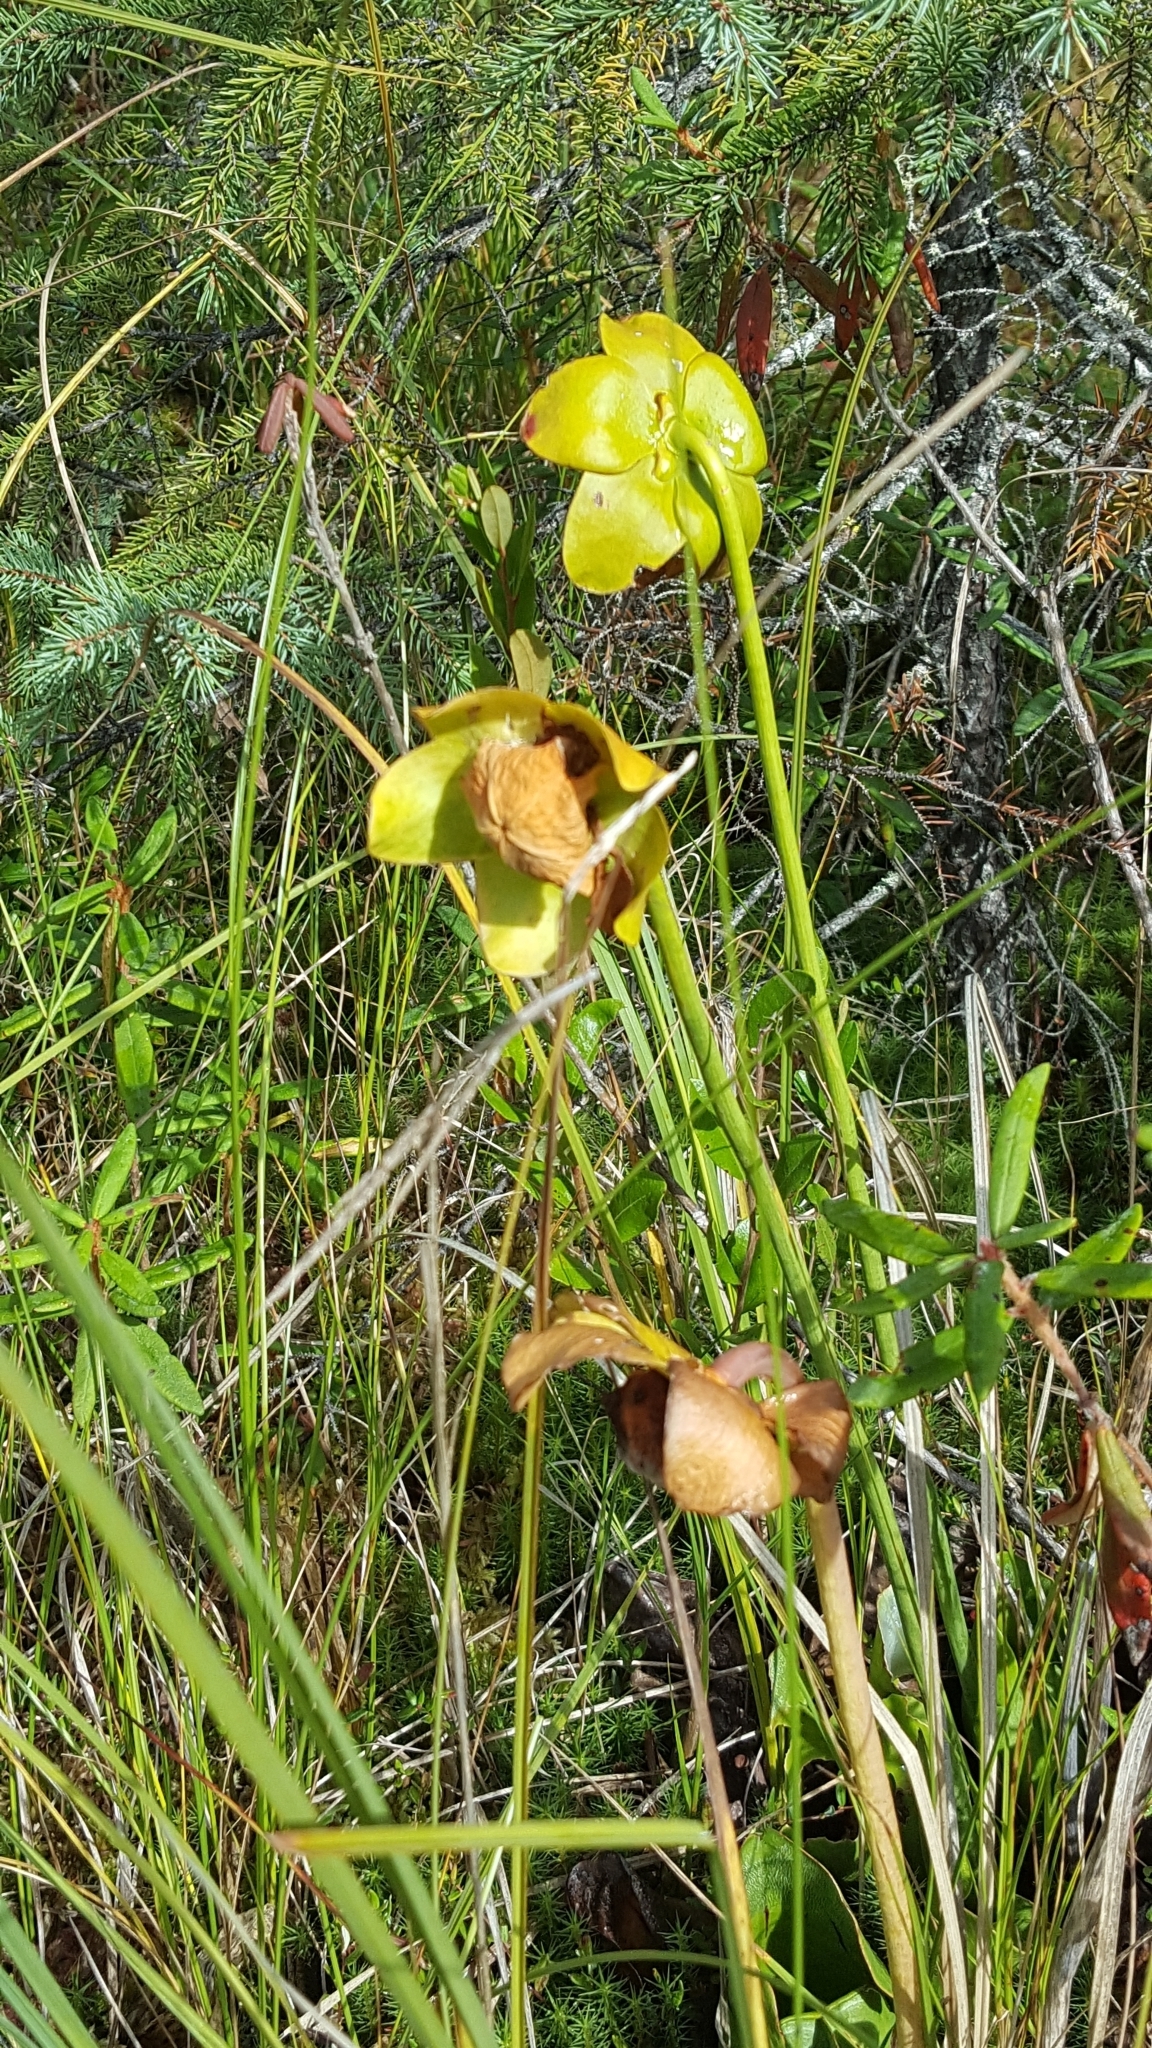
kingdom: Plantae
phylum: Tracheophyta
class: Magnoliopsida
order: Ericales
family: Sarraceniaceae
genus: Sarracenia
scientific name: Sarracenia purpurea
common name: Pitcherplant
